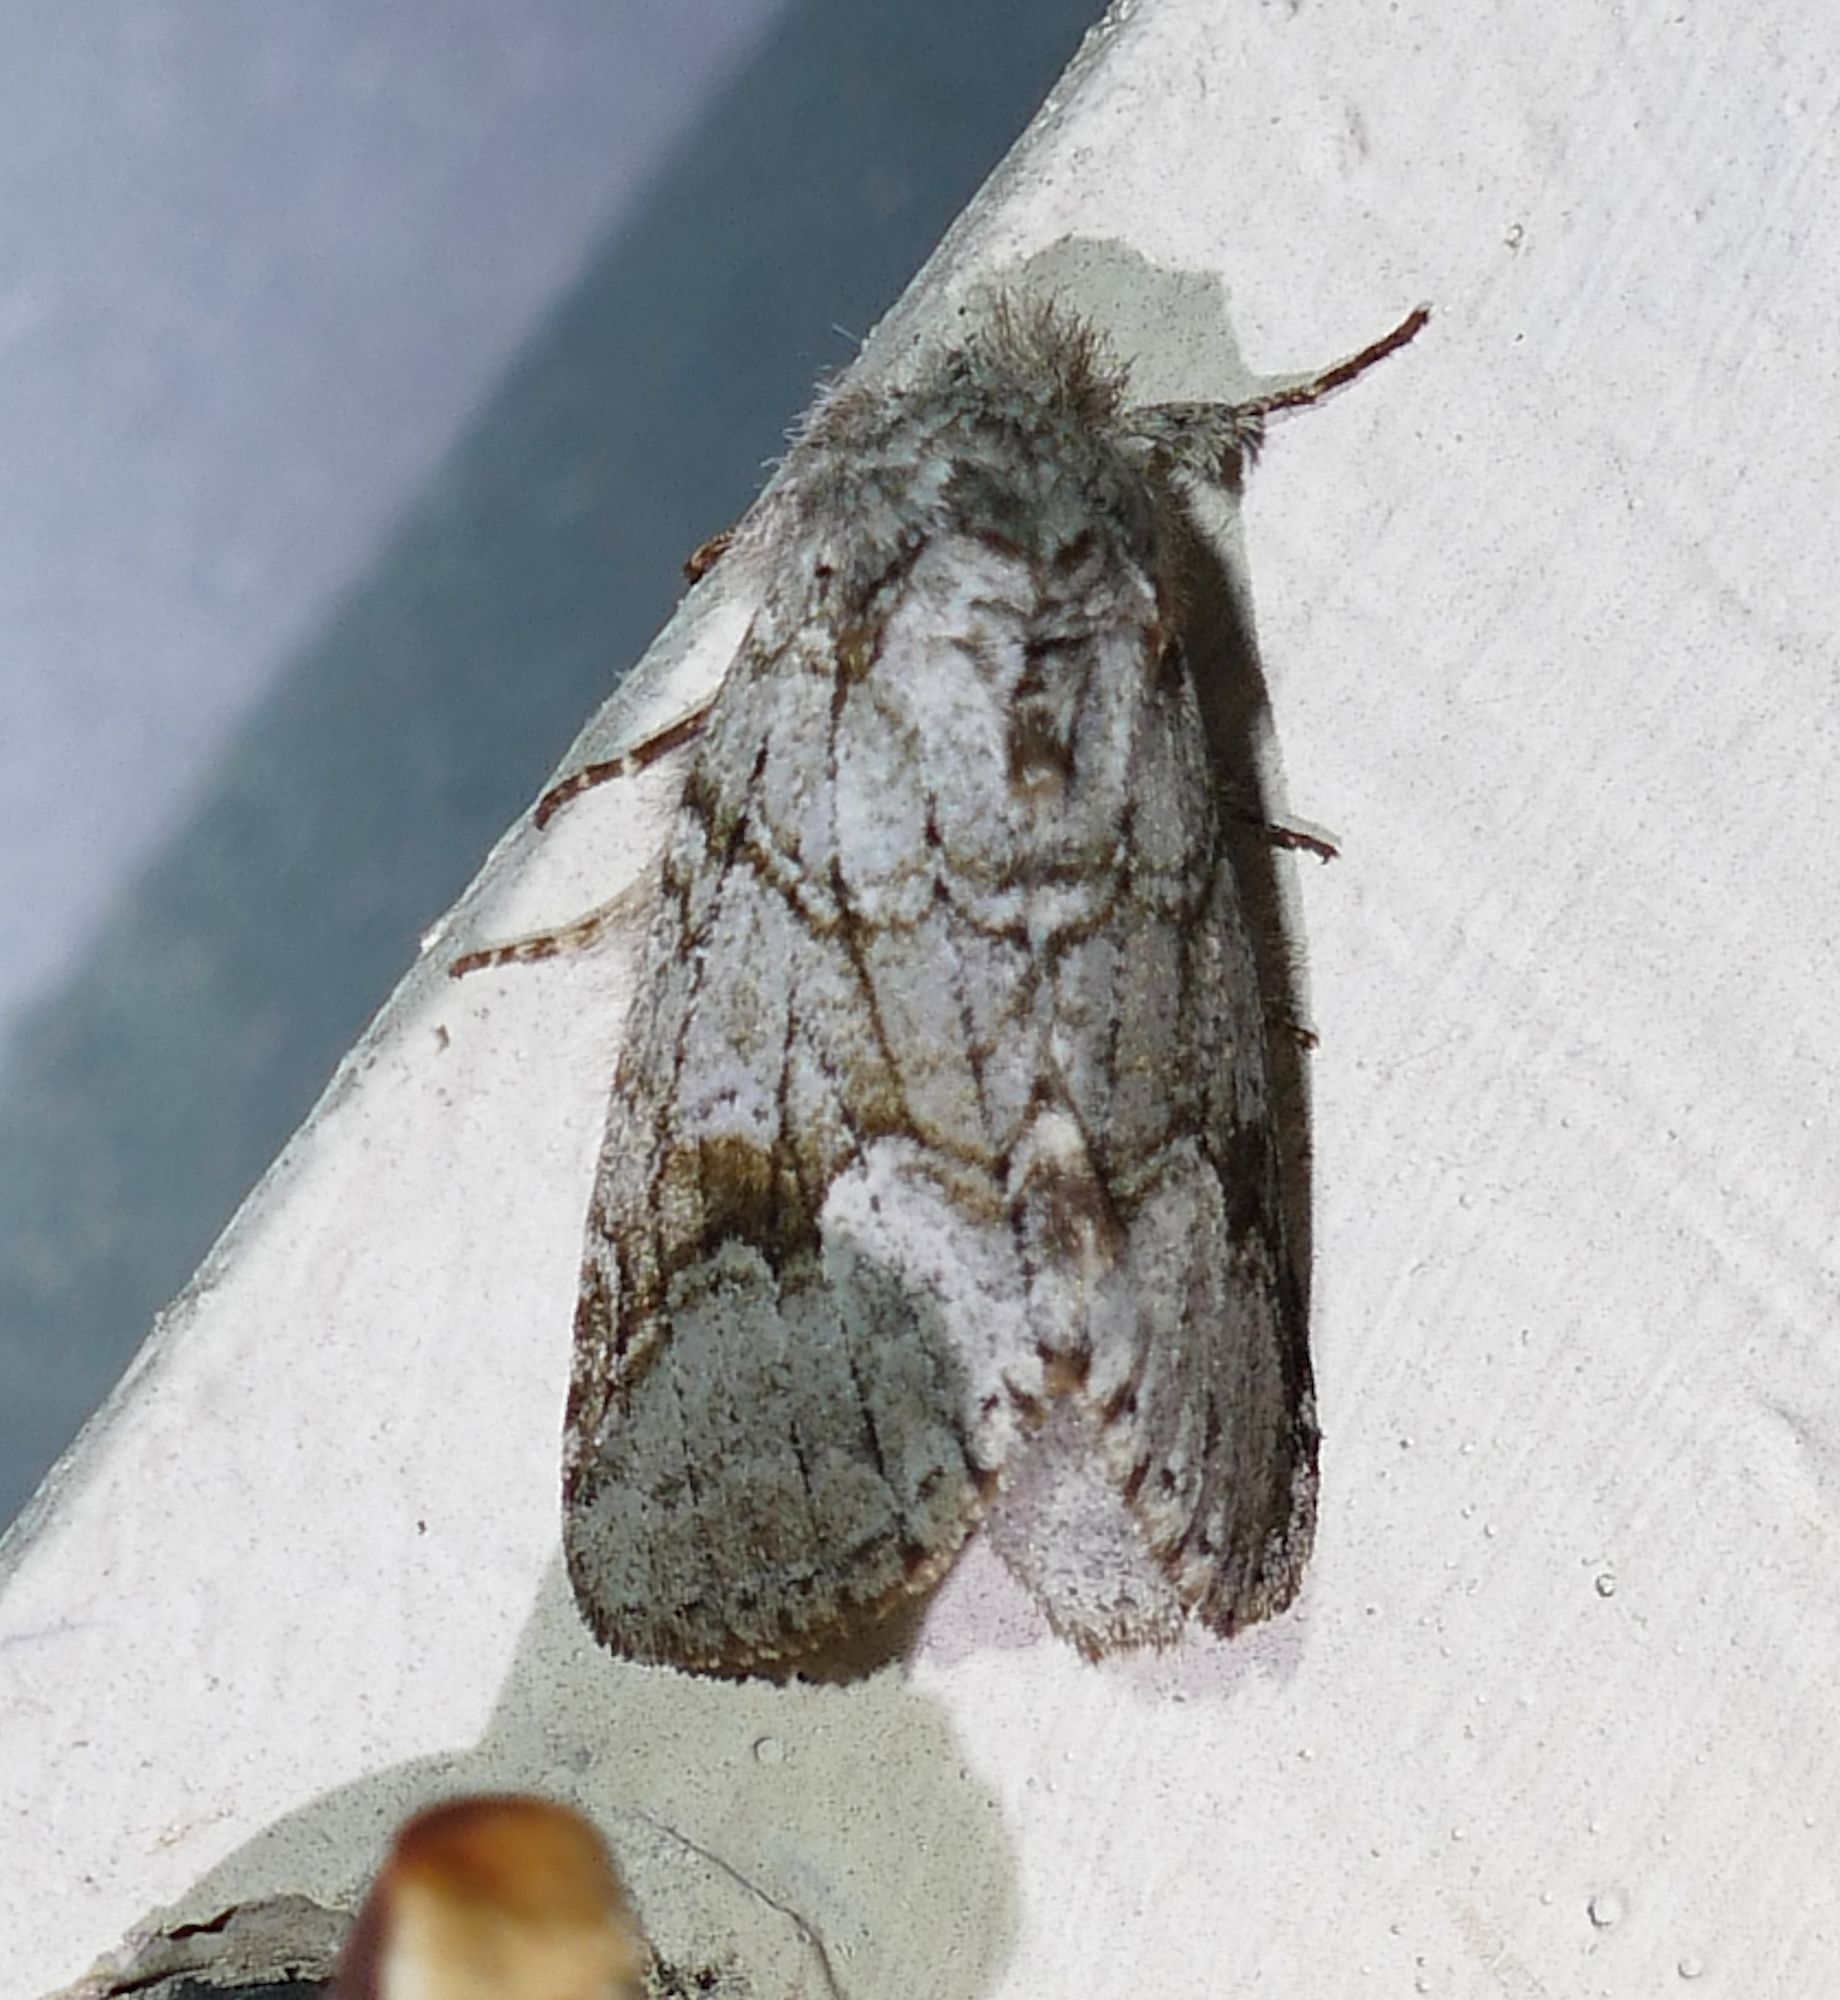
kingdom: Animalia
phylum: Arthropoda
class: Insecta
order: Lepidoptera
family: Notodontidae
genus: Lochmaeus
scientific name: Lochmaeus bilineata
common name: Double-lined prominent
